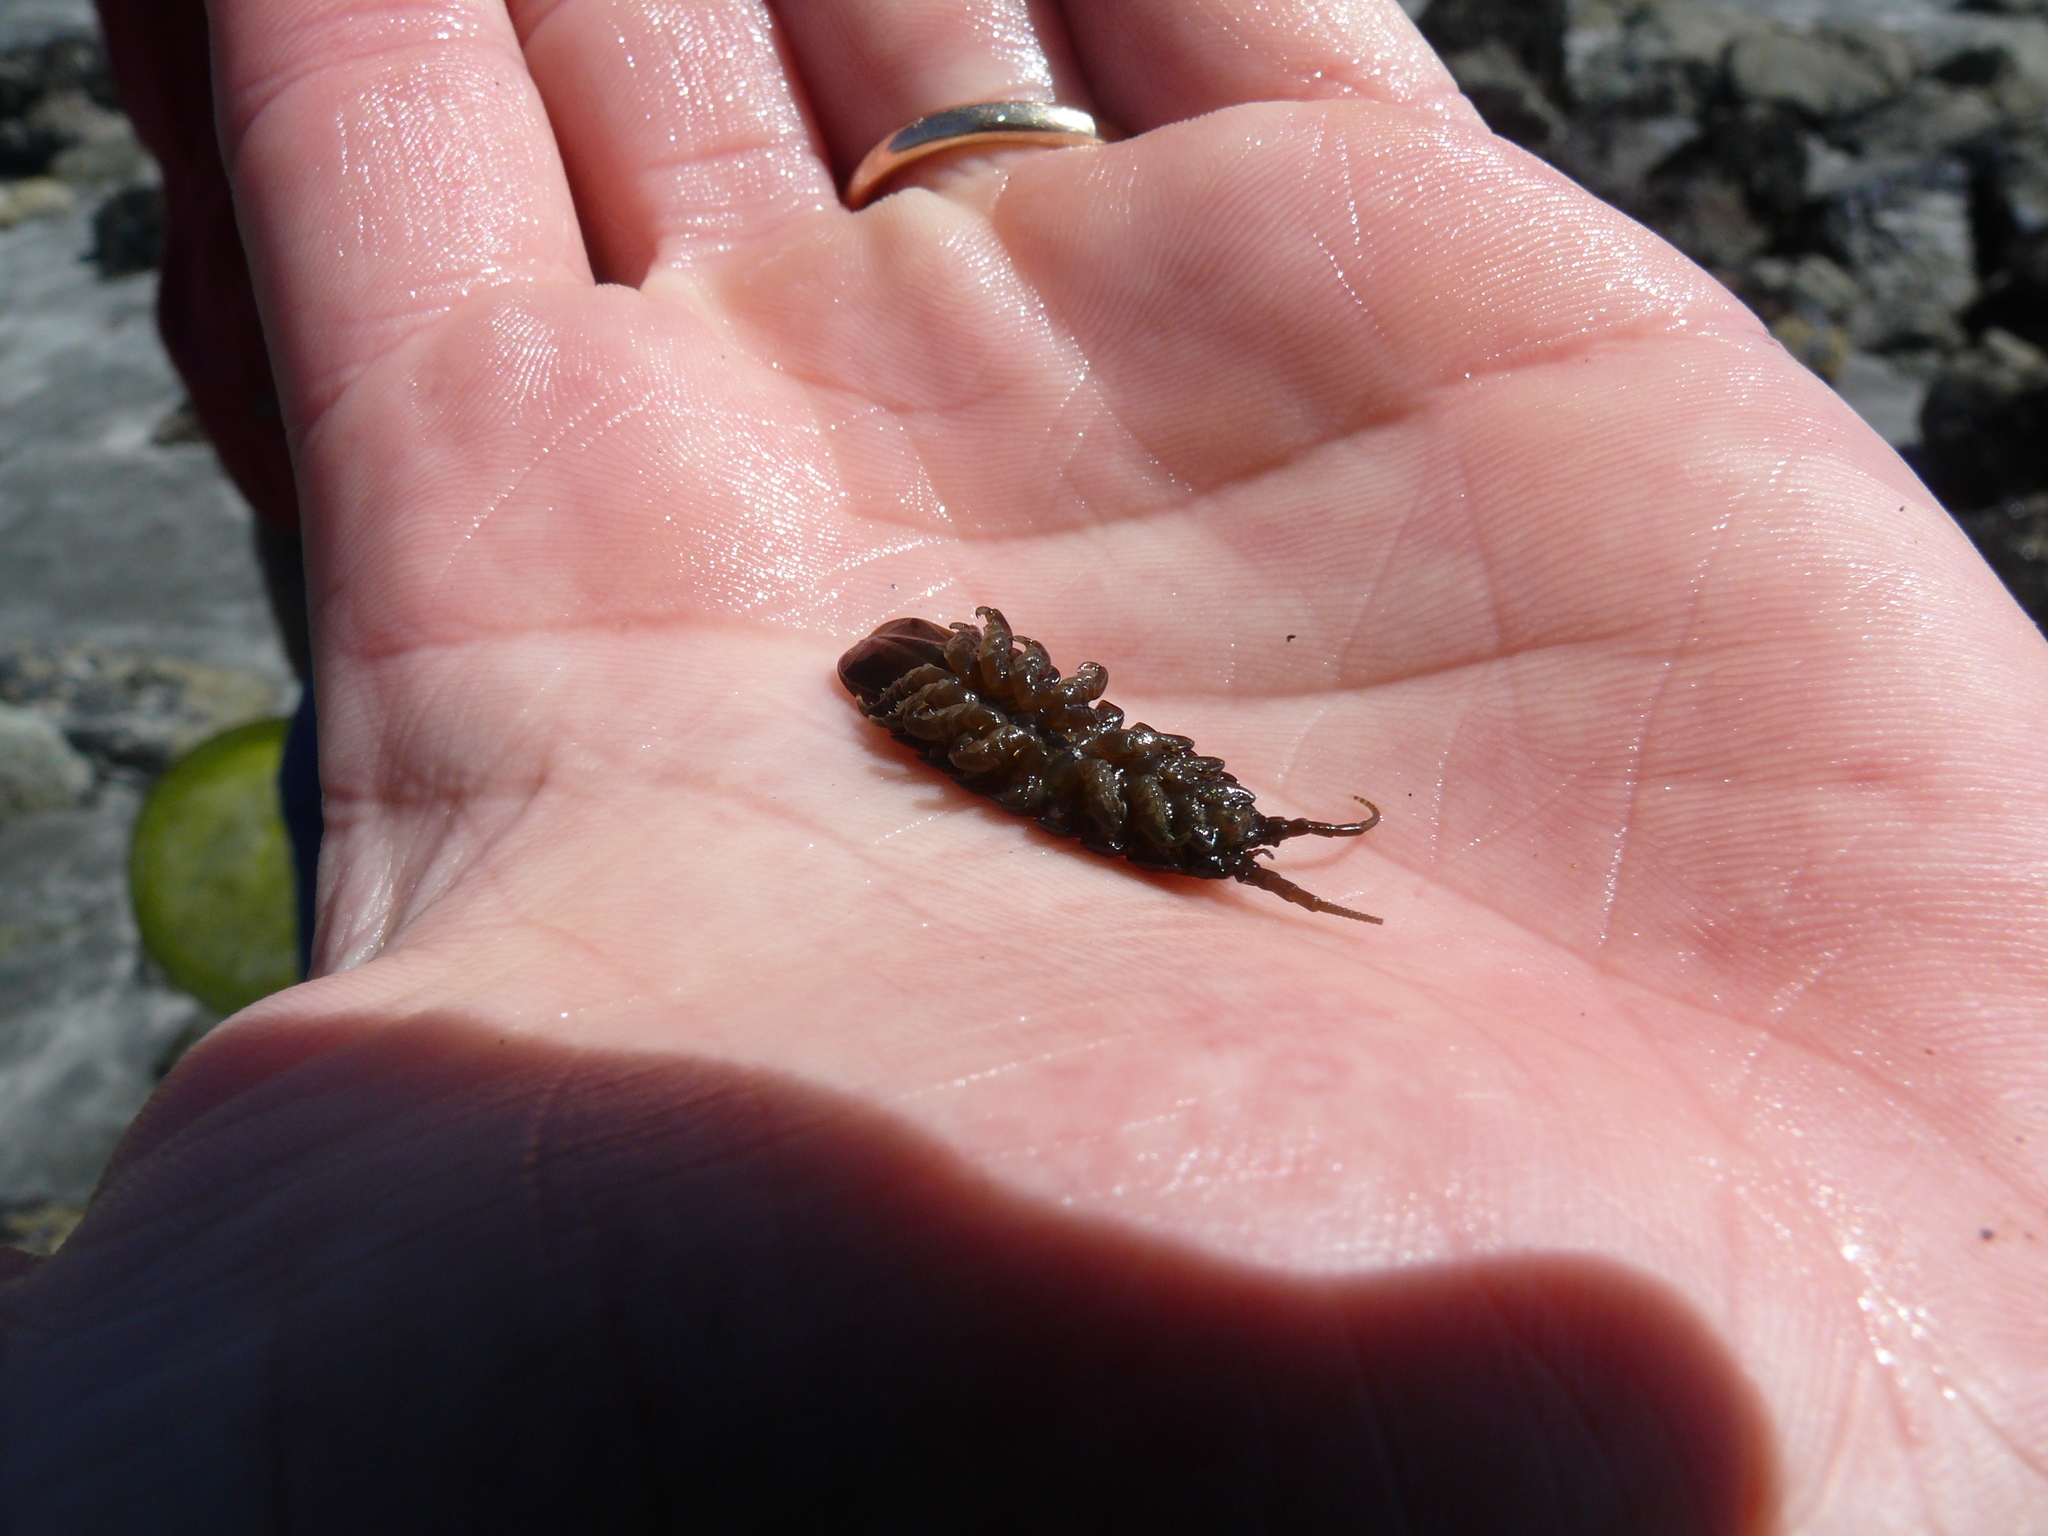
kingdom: Animalia
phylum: Arthropoda
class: Malacostraca
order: Isopoda
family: Idoteidae
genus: Pentidotea
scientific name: Pentidotea wosnesenskii
